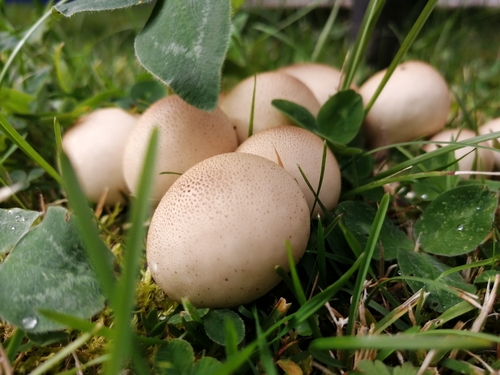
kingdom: Fungi
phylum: Basidiomycota
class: Agaricomycetes
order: Agaricales
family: Lycoperdaceae
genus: Apioperdon
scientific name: Apioperdon pyriforme
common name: Pear-shaped puffball
